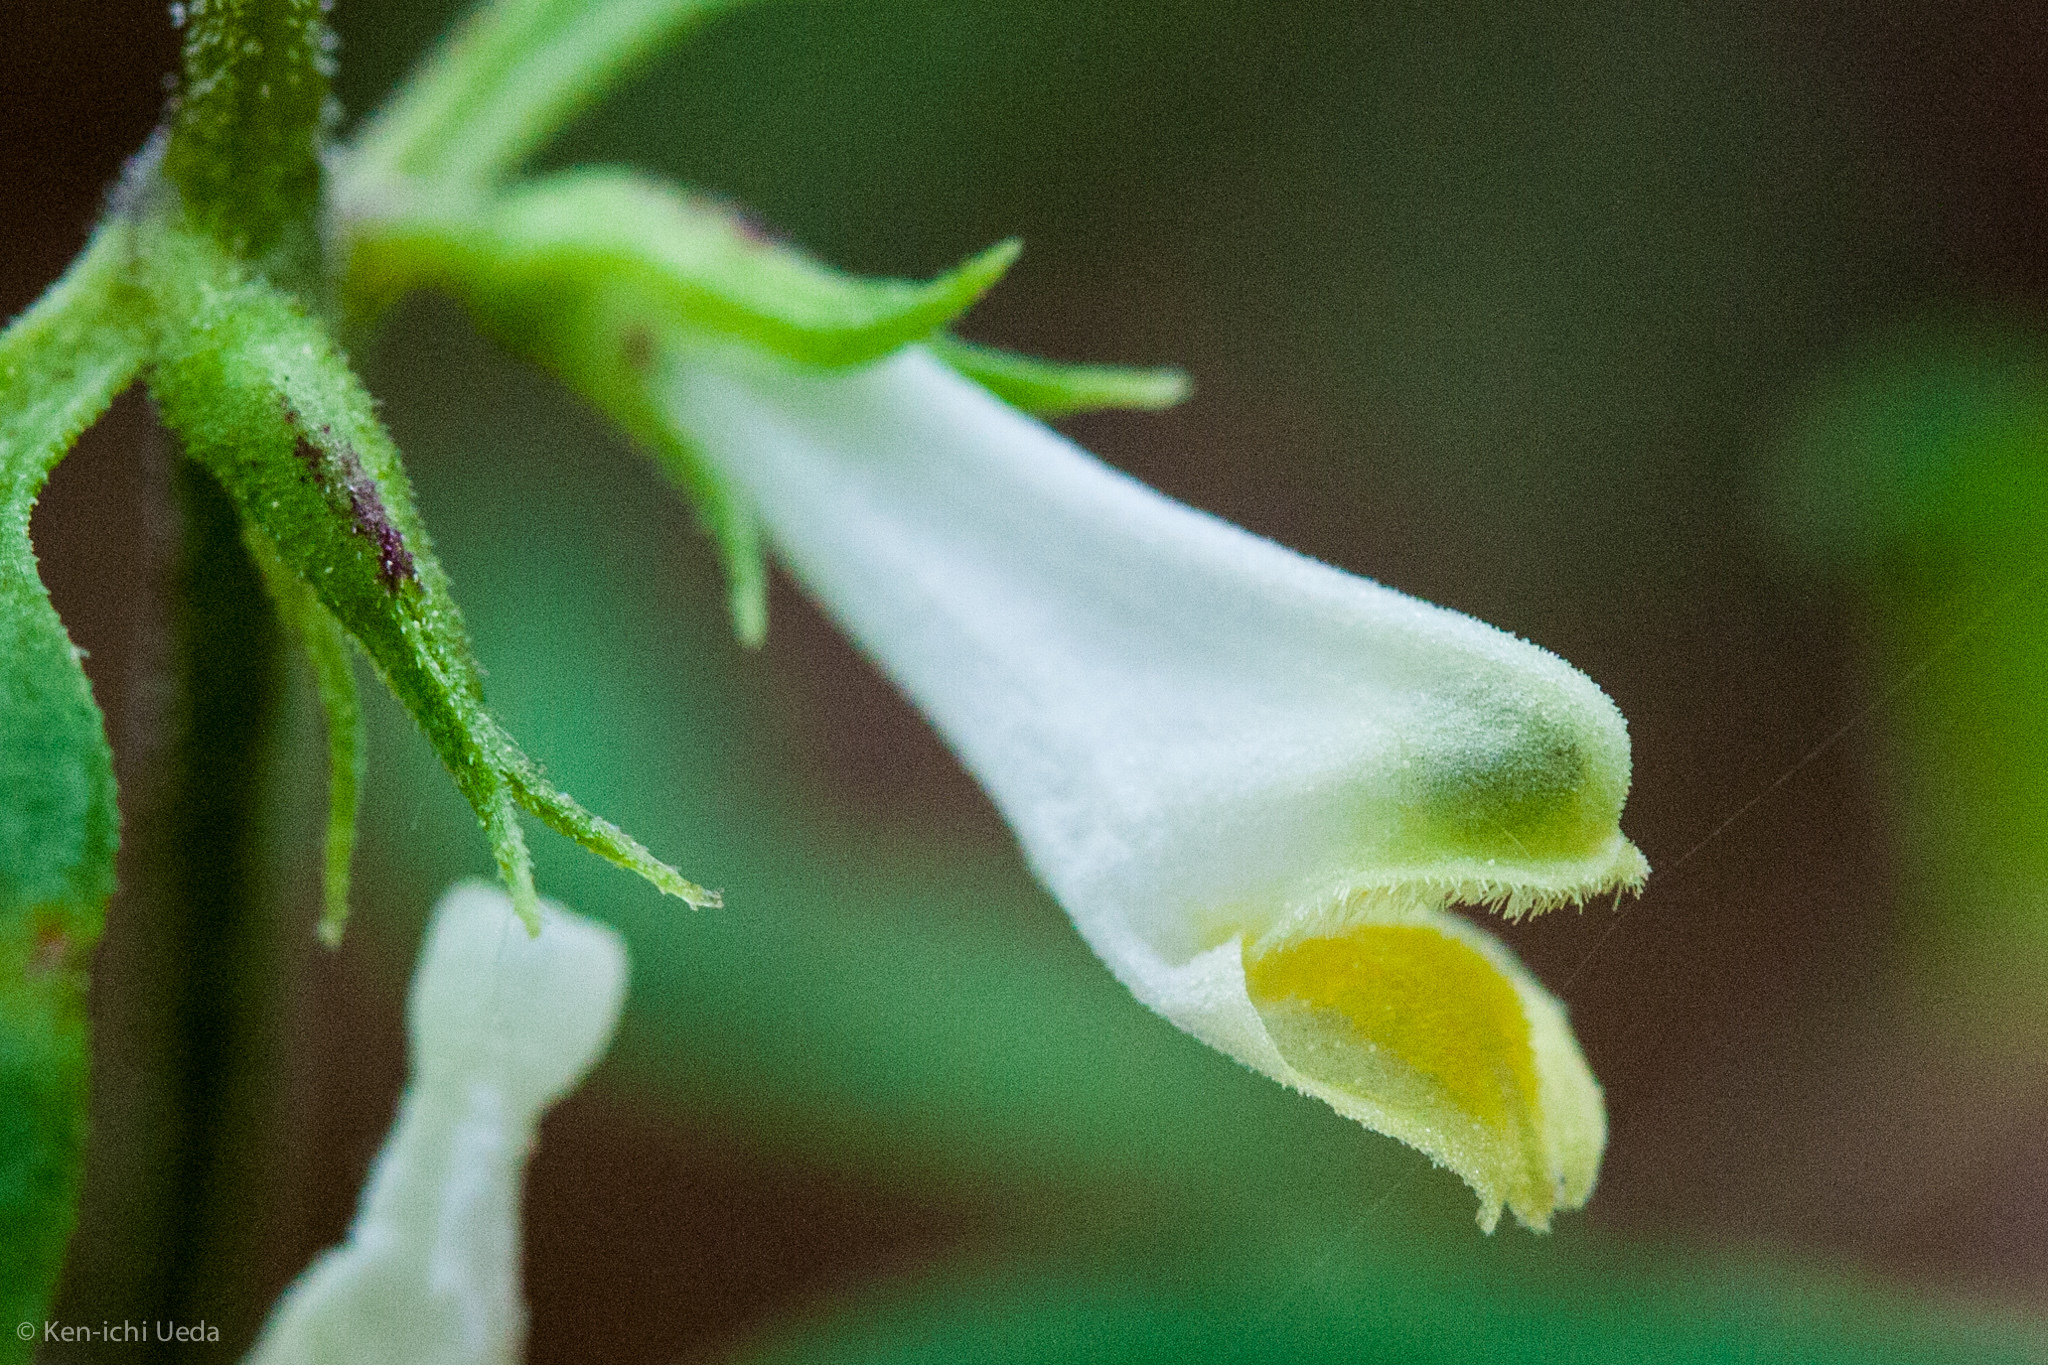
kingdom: Plantae
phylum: Tracheophyta
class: Magnoliopsida
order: Lamiales
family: Orobanchaceae
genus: Melampyrum
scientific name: Melampyrum lineare
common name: American cow-wheat
